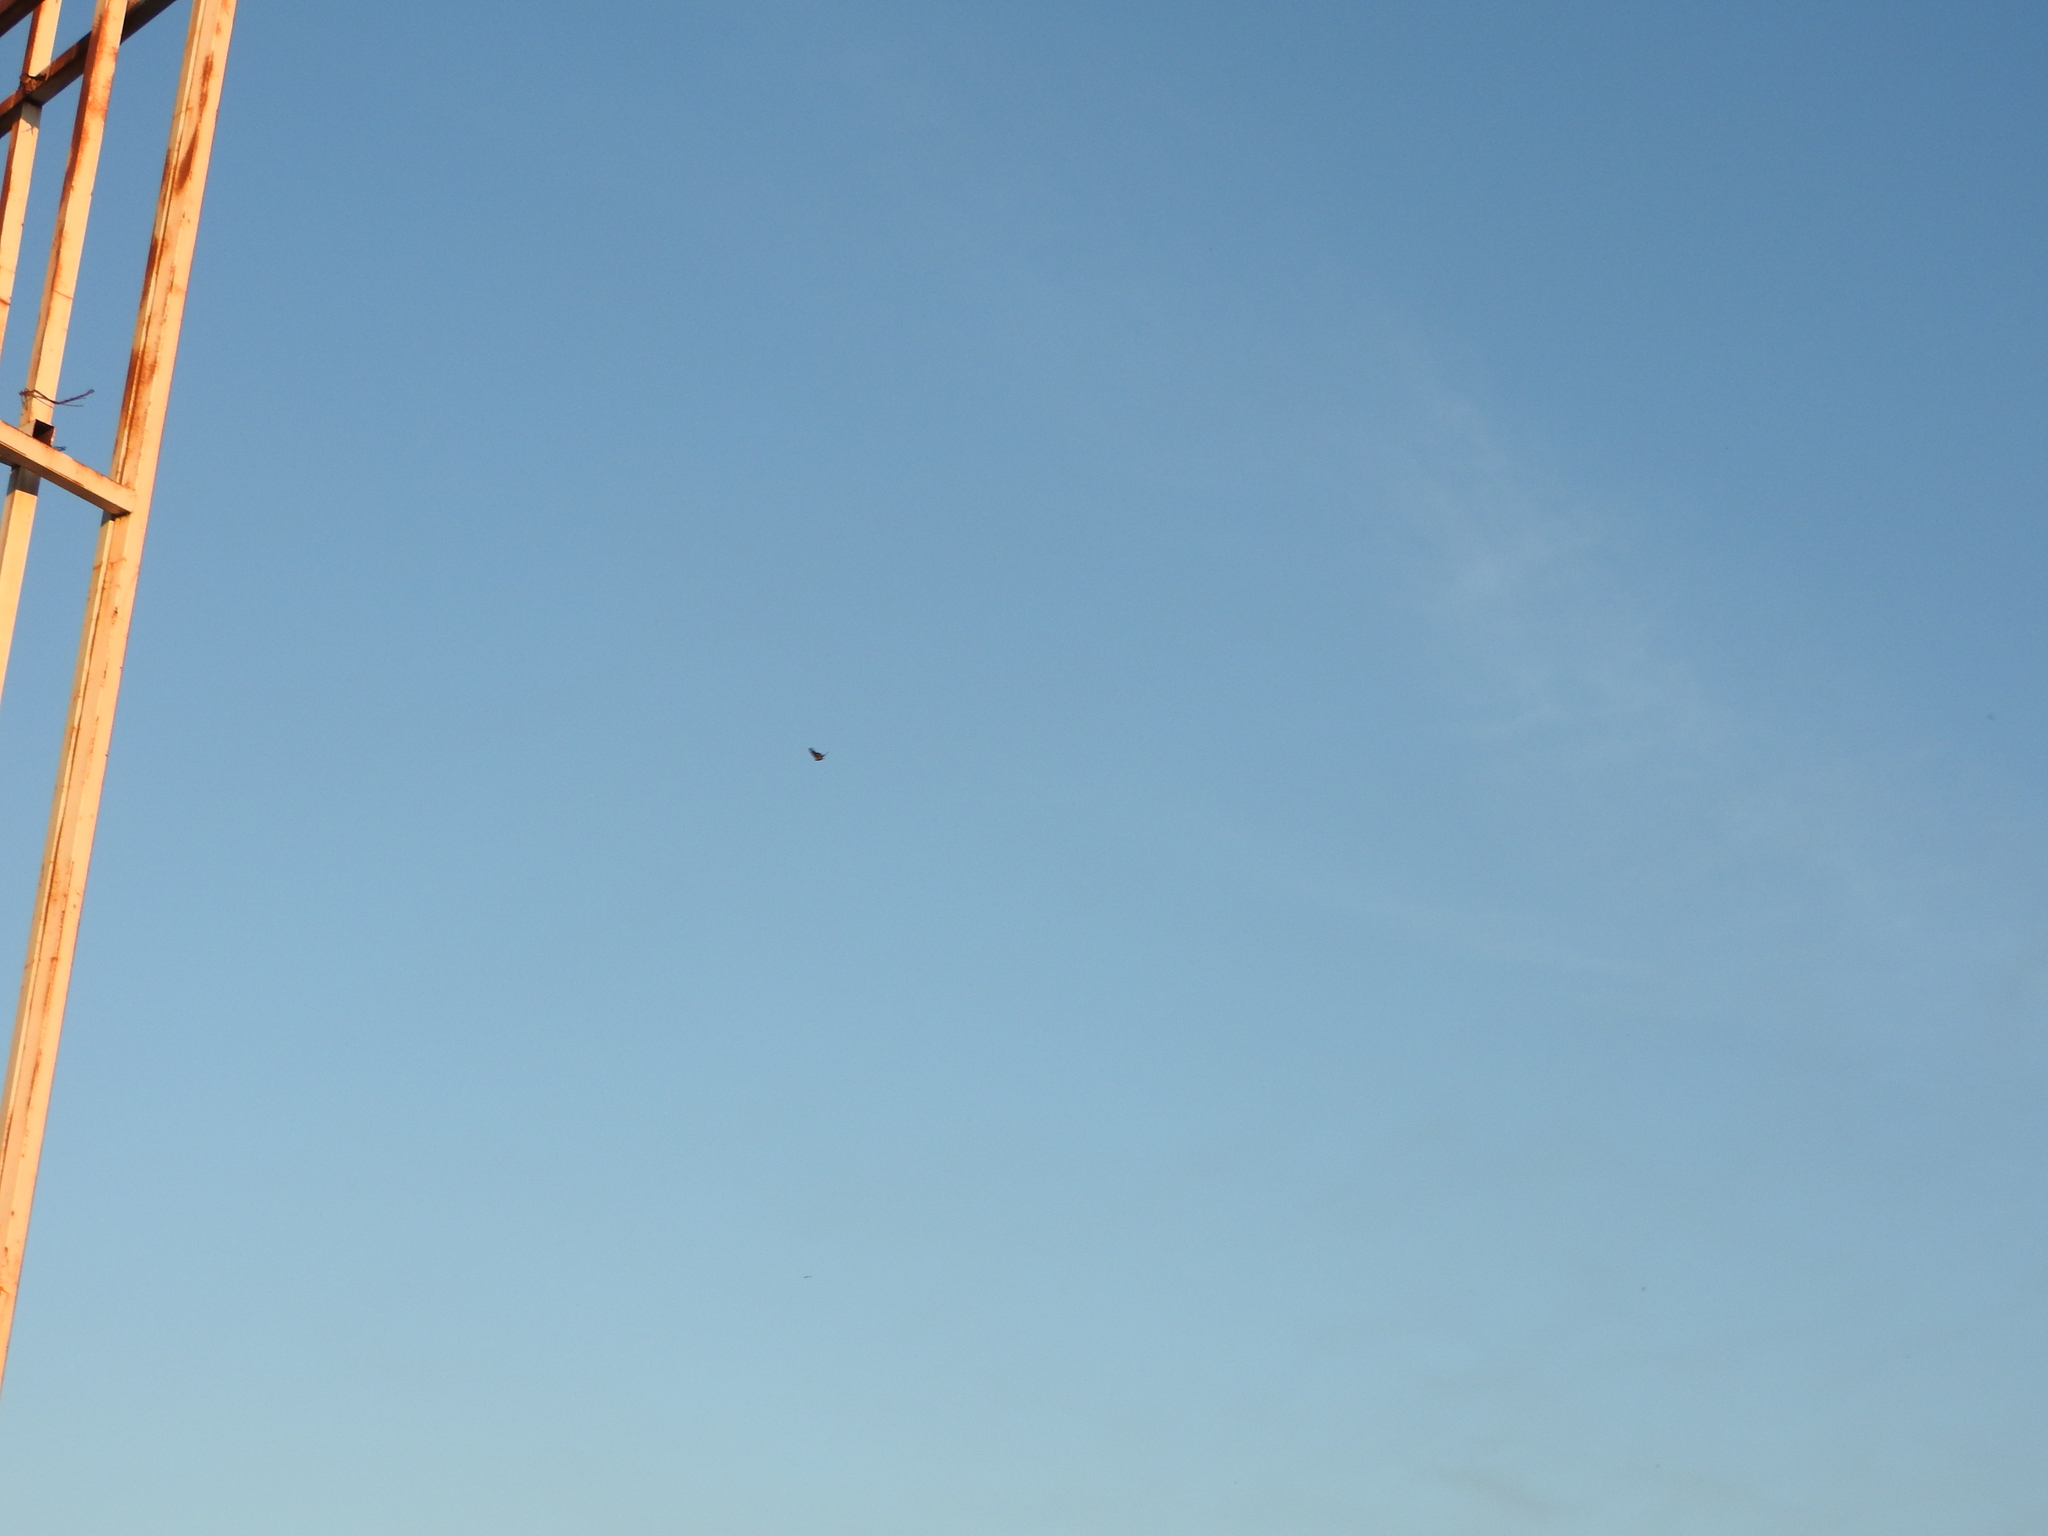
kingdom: Animalia
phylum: Arthropoda
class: Insecta
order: Lepidoptera
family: Nymphalidae
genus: Danaus
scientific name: Danaus plexippus
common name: Monarch
